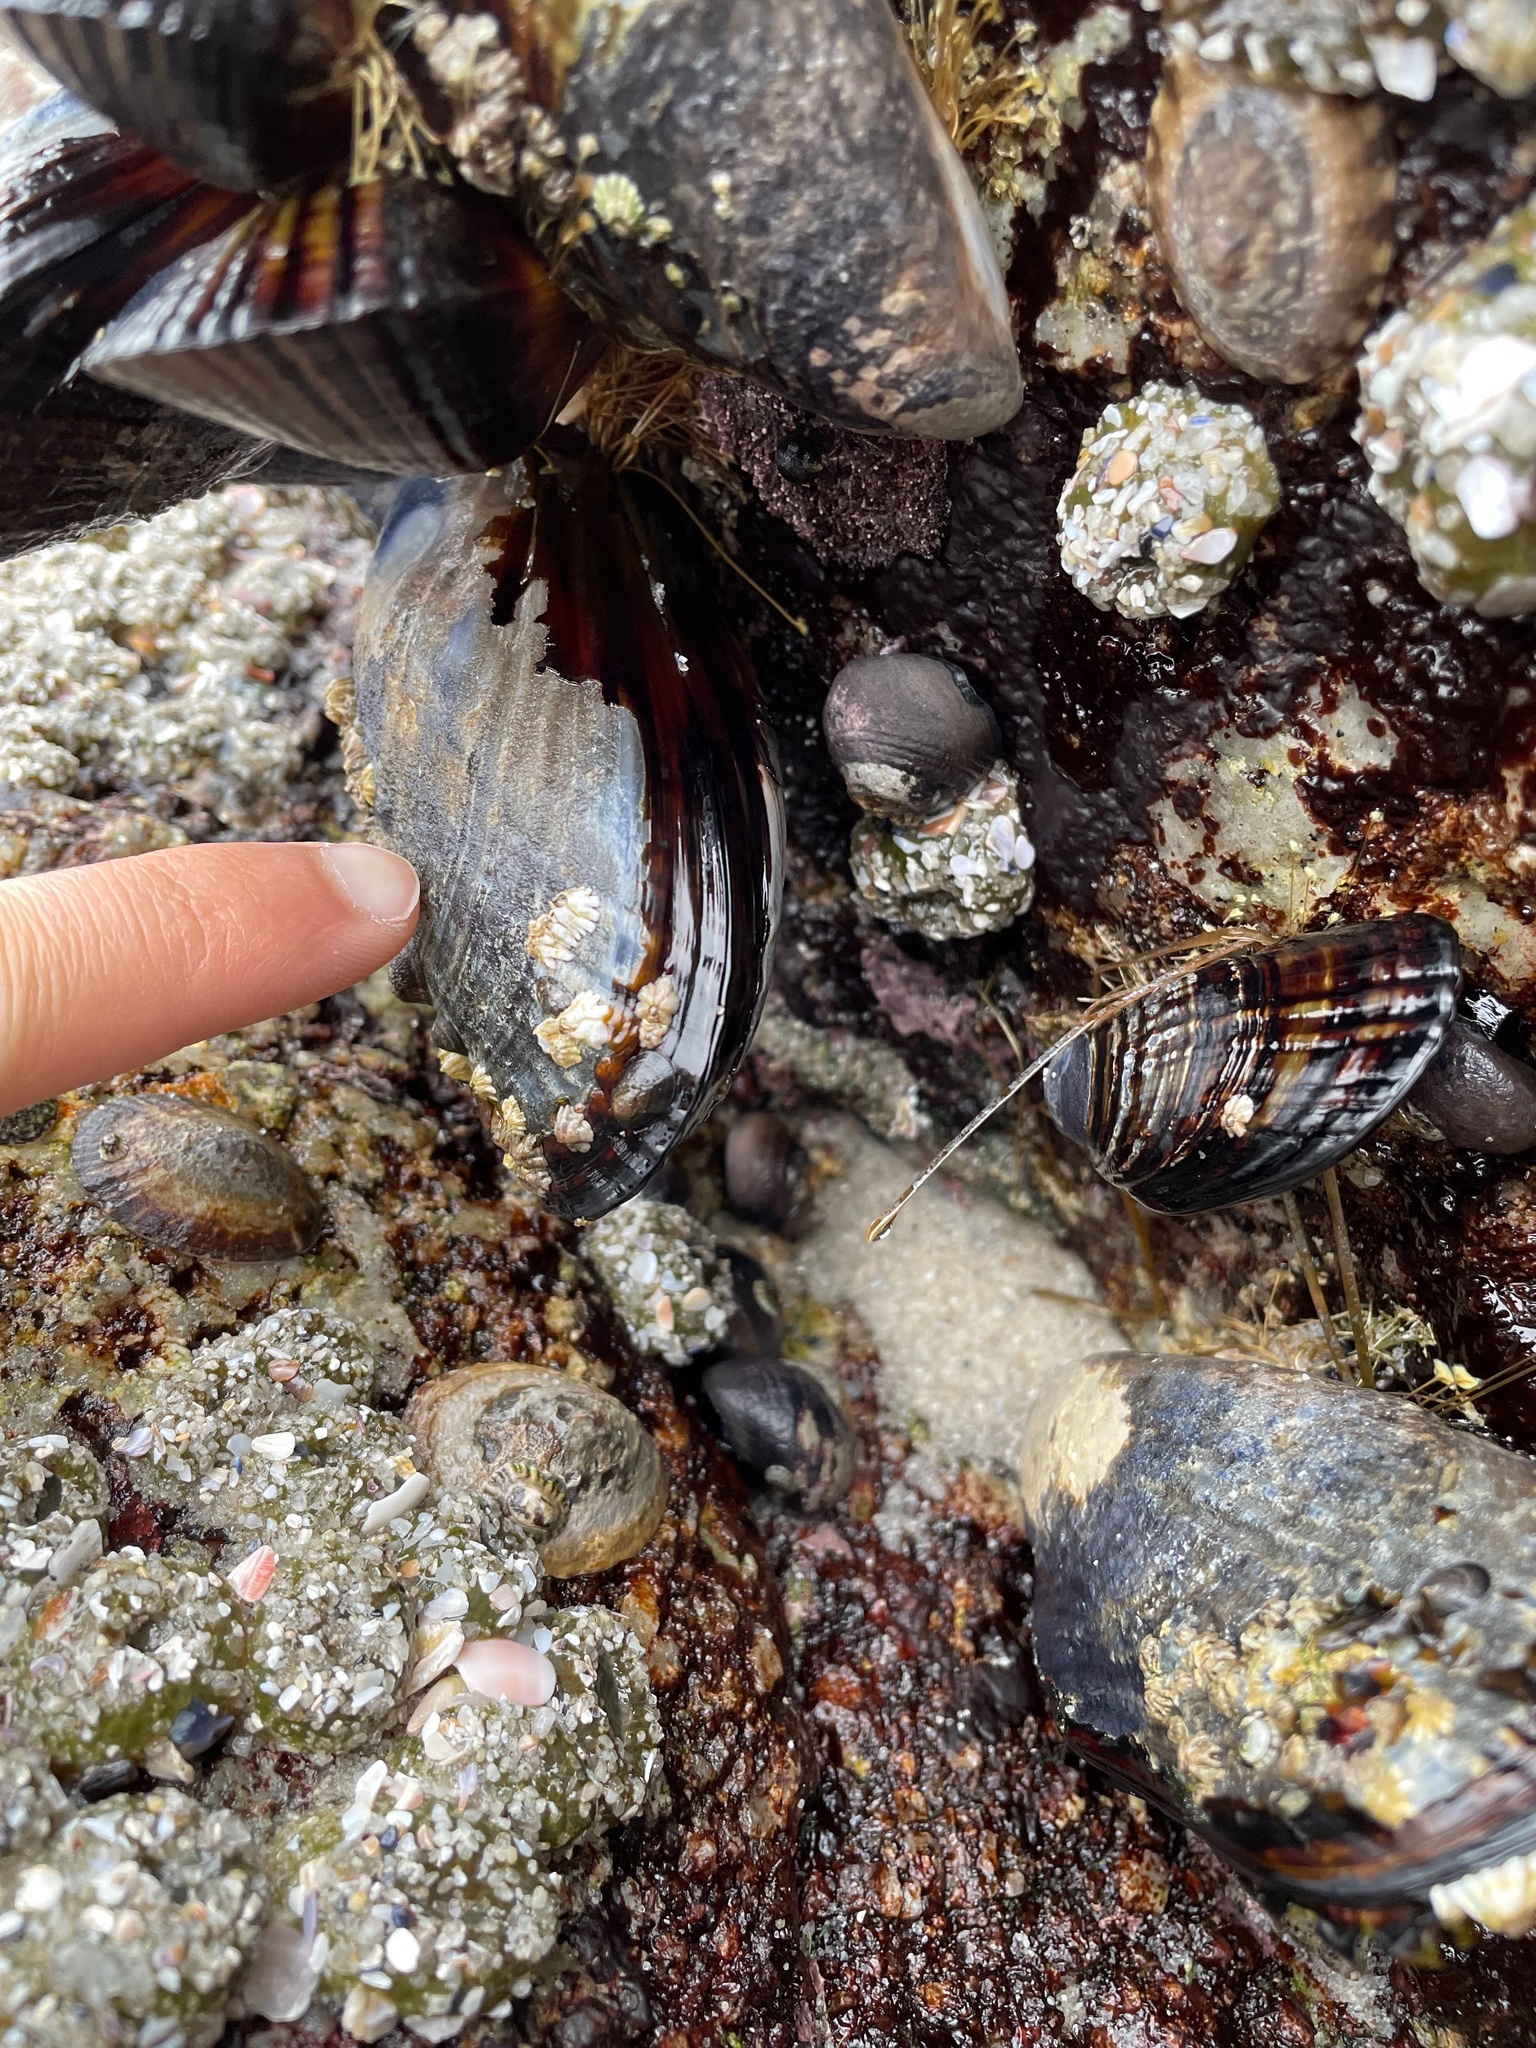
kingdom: Animalia
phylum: Mollusca
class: Bivalvia
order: Mytilida
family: Mytilidae
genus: Mytilus
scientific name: Mytilus californianus
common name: California mussel
